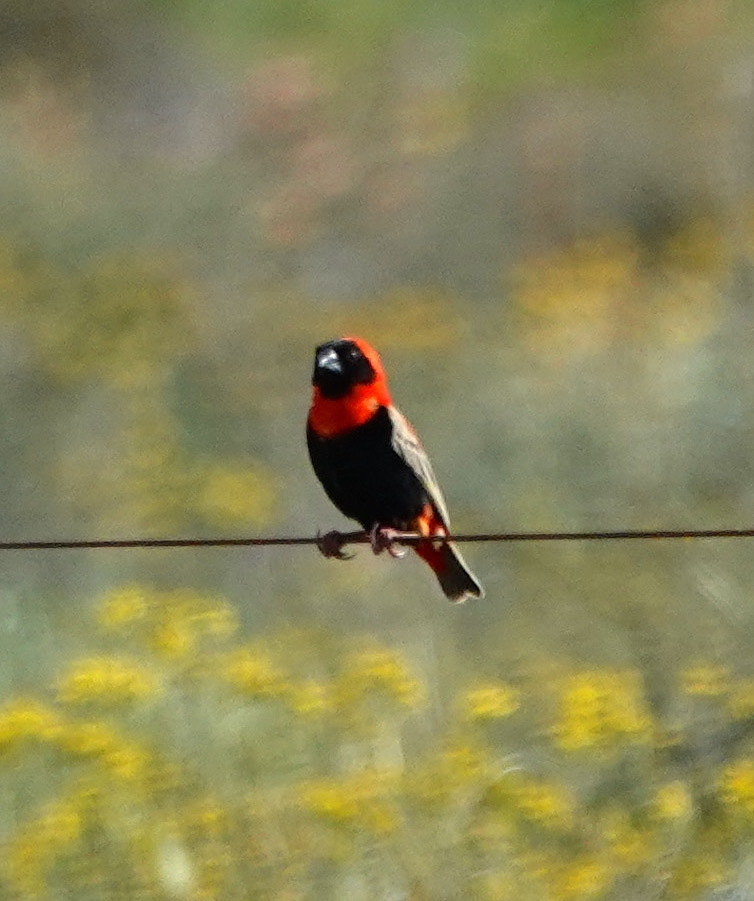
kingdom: Animalia
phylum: Chordata
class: Aves
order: Passeriformes
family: Ploceidae
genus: Euplectes
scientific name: Euplectes orix
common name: Southern red bishop
